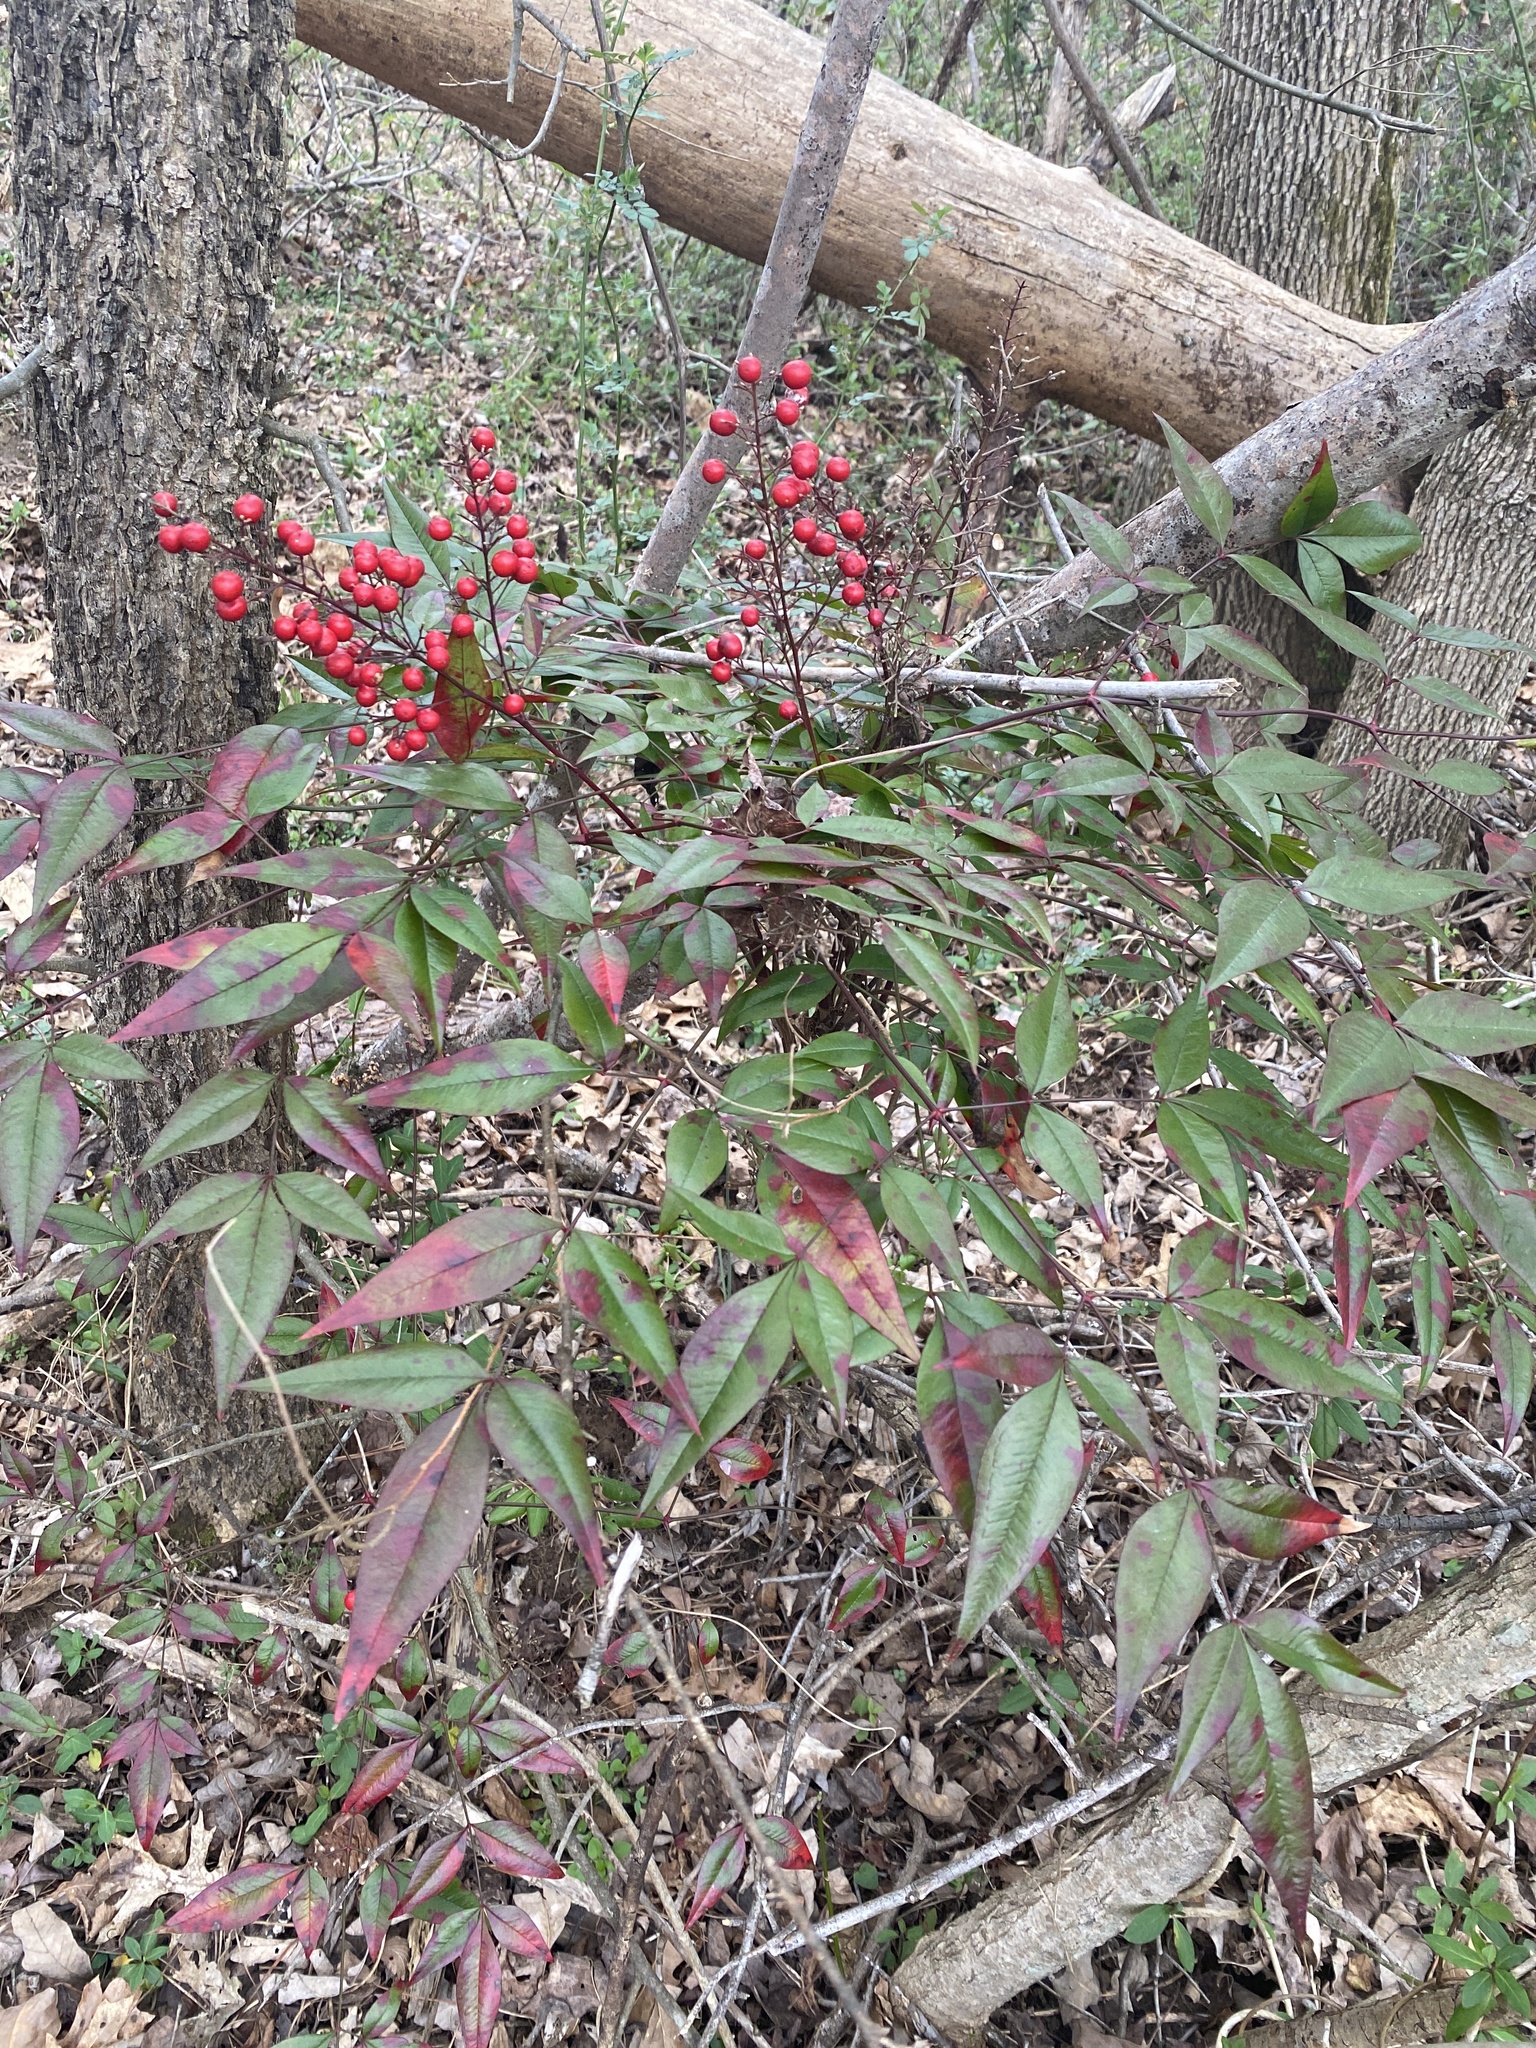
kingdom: Plantae
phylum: Tracheophyta
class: Magnoliopsida
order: Ranunculales
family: Berberidaceae
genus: Nandina
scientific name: Nandina domestica
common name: Sacred bamboo
